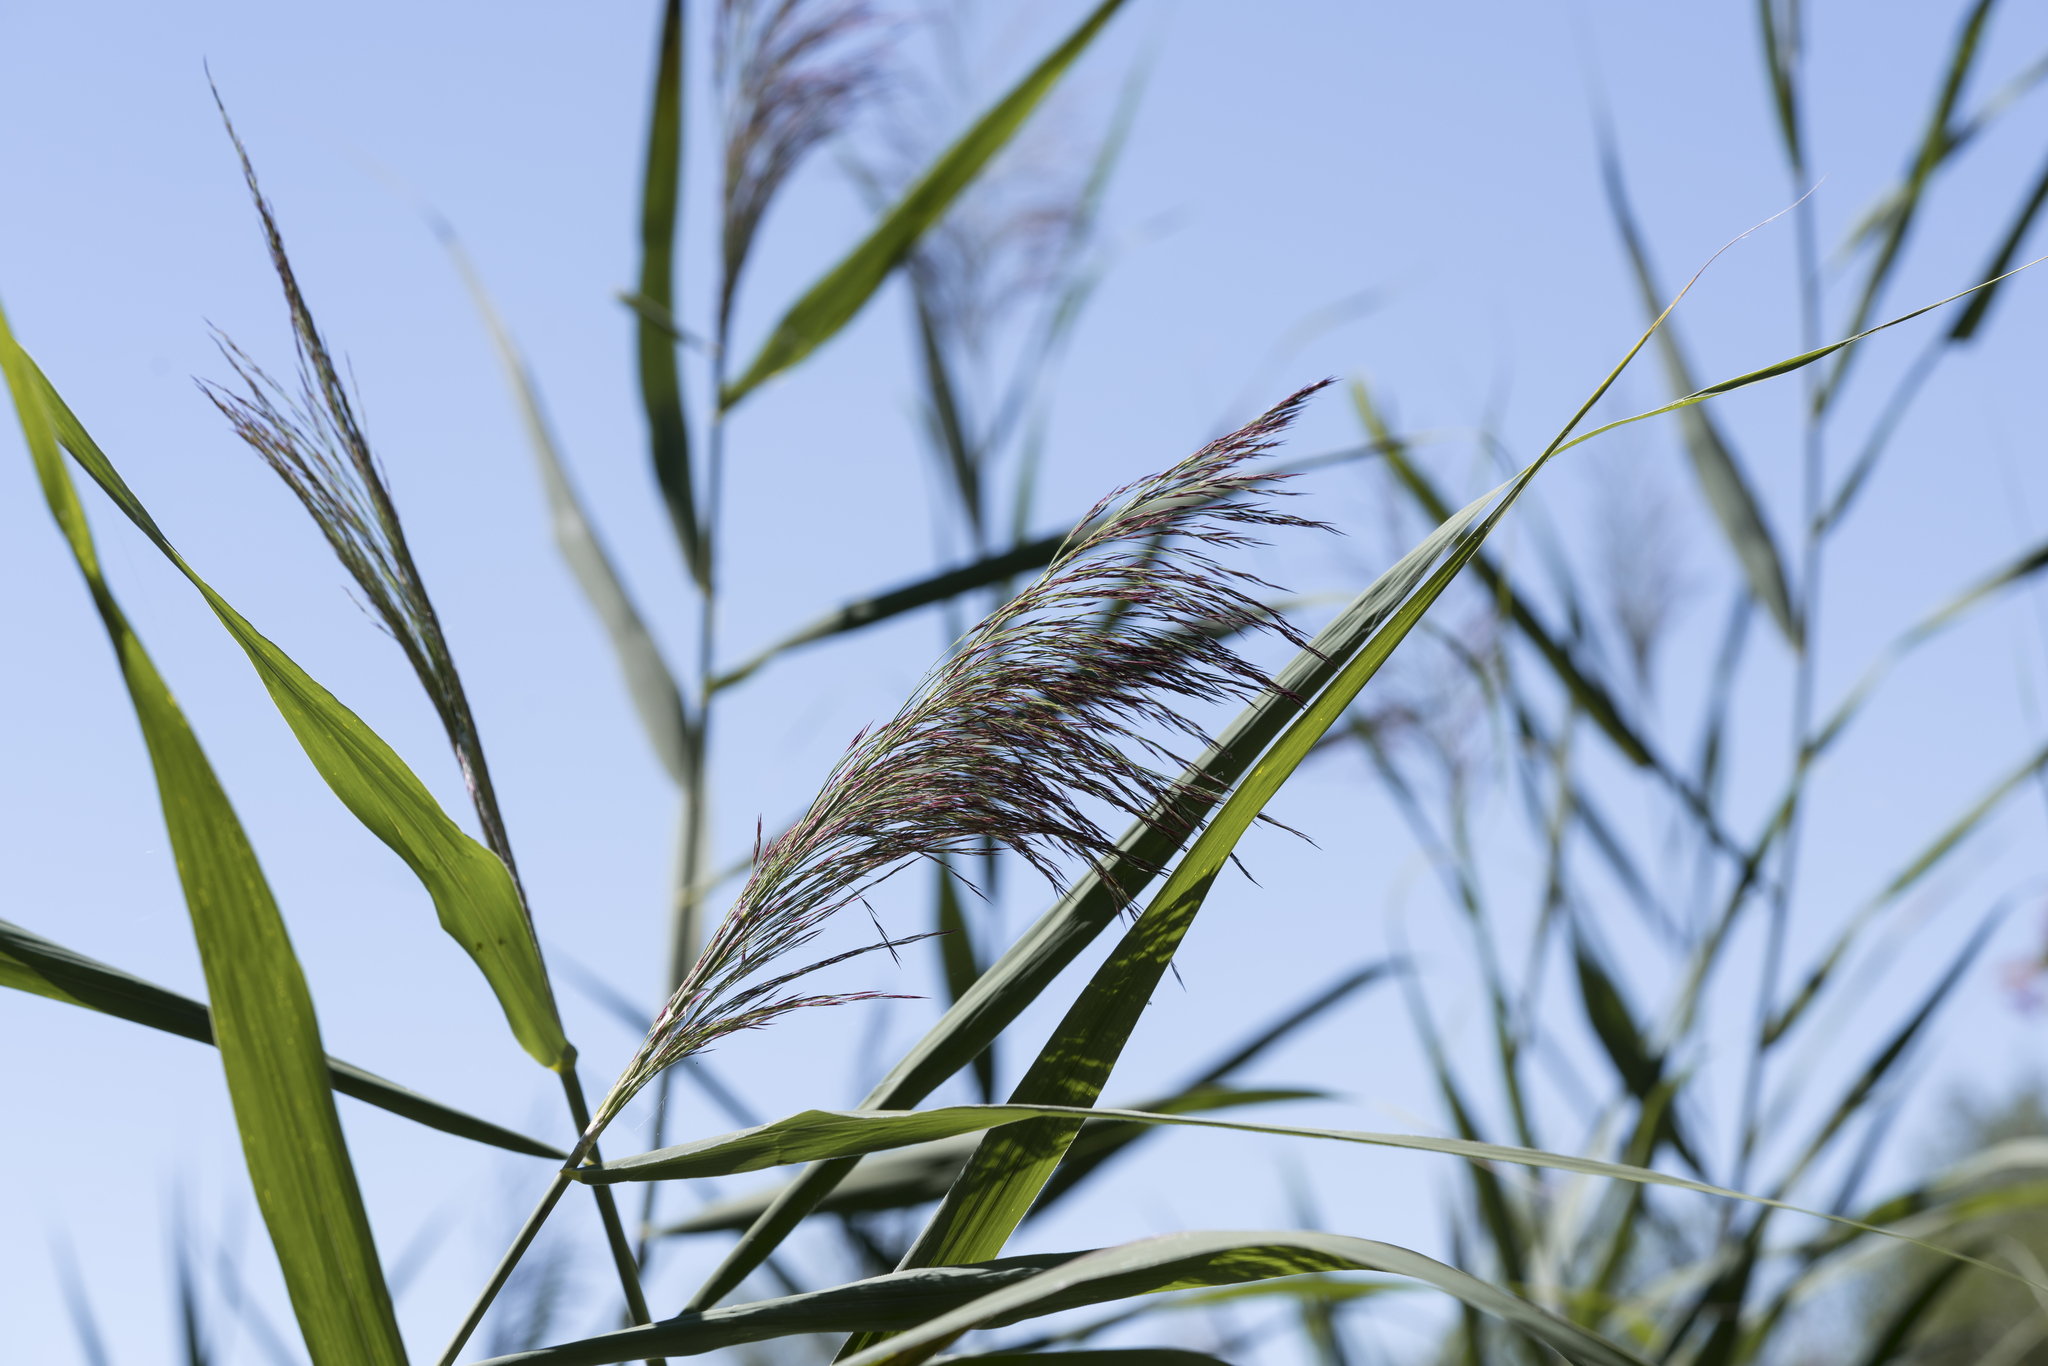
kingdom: Plantae
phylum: Tracheophyta
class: Liliopsida
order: Poales
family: Poaceae
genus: Phragmites
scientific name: Phragmites australis
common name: Common reed
